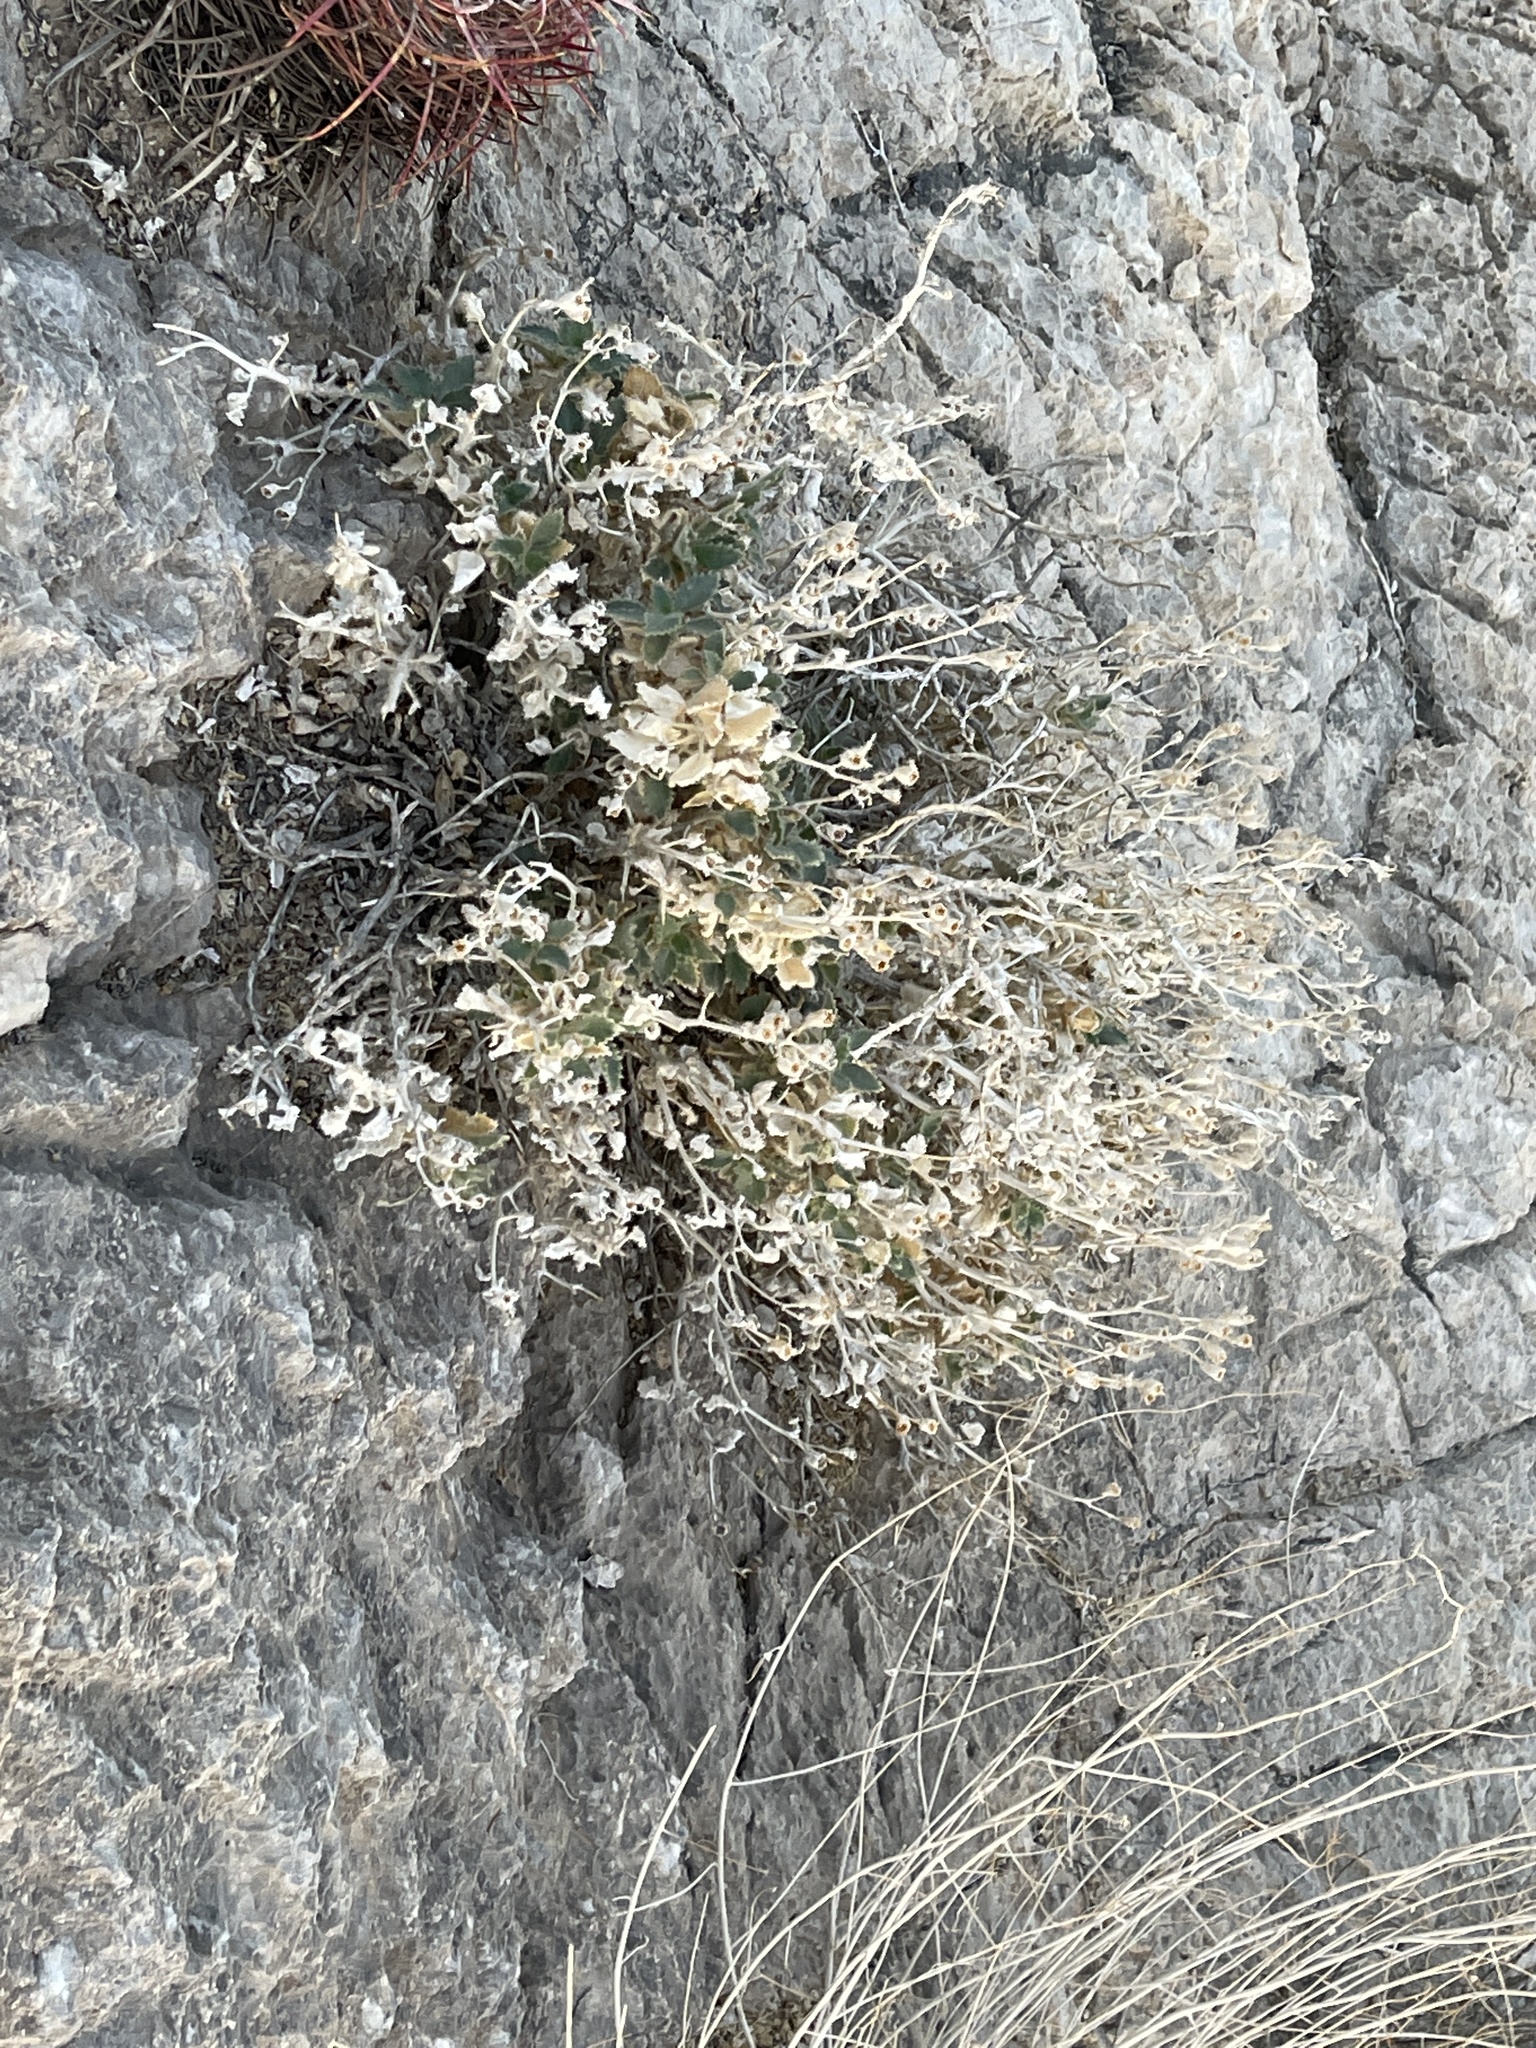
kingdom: Plantae
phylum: Tracheophyta
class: Magnoliopsida
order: Cornales
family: Loasaceae
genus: Eucnide
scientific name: Eucnide urens
